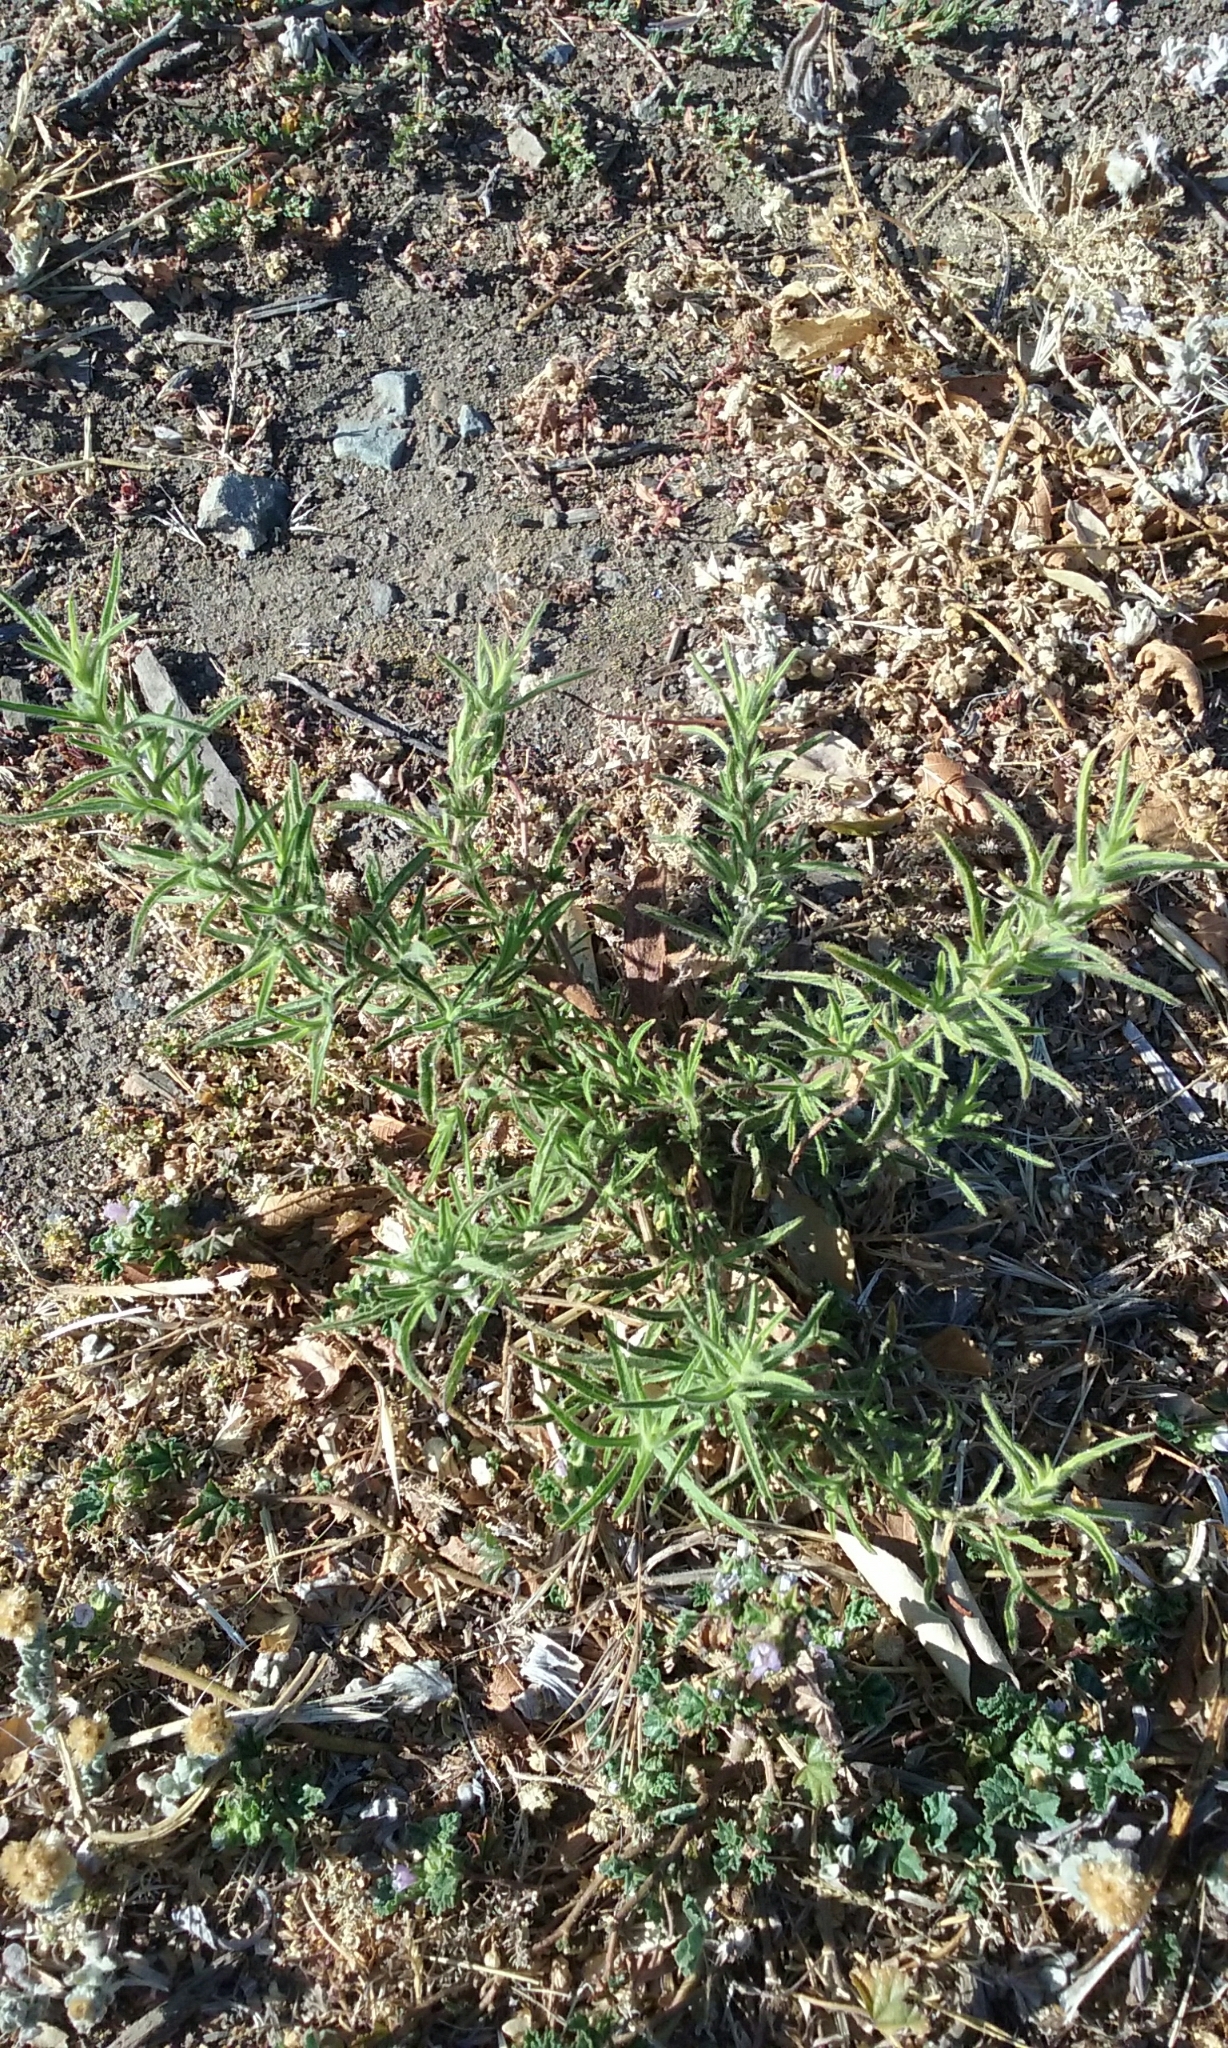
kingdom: Plantae
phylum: Tracheophyta
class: Magnoliopsida
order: Asterales
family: Asteraceae
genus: Dittrichia
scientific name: Dittrichia graveolens
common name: Stinking fleabane
